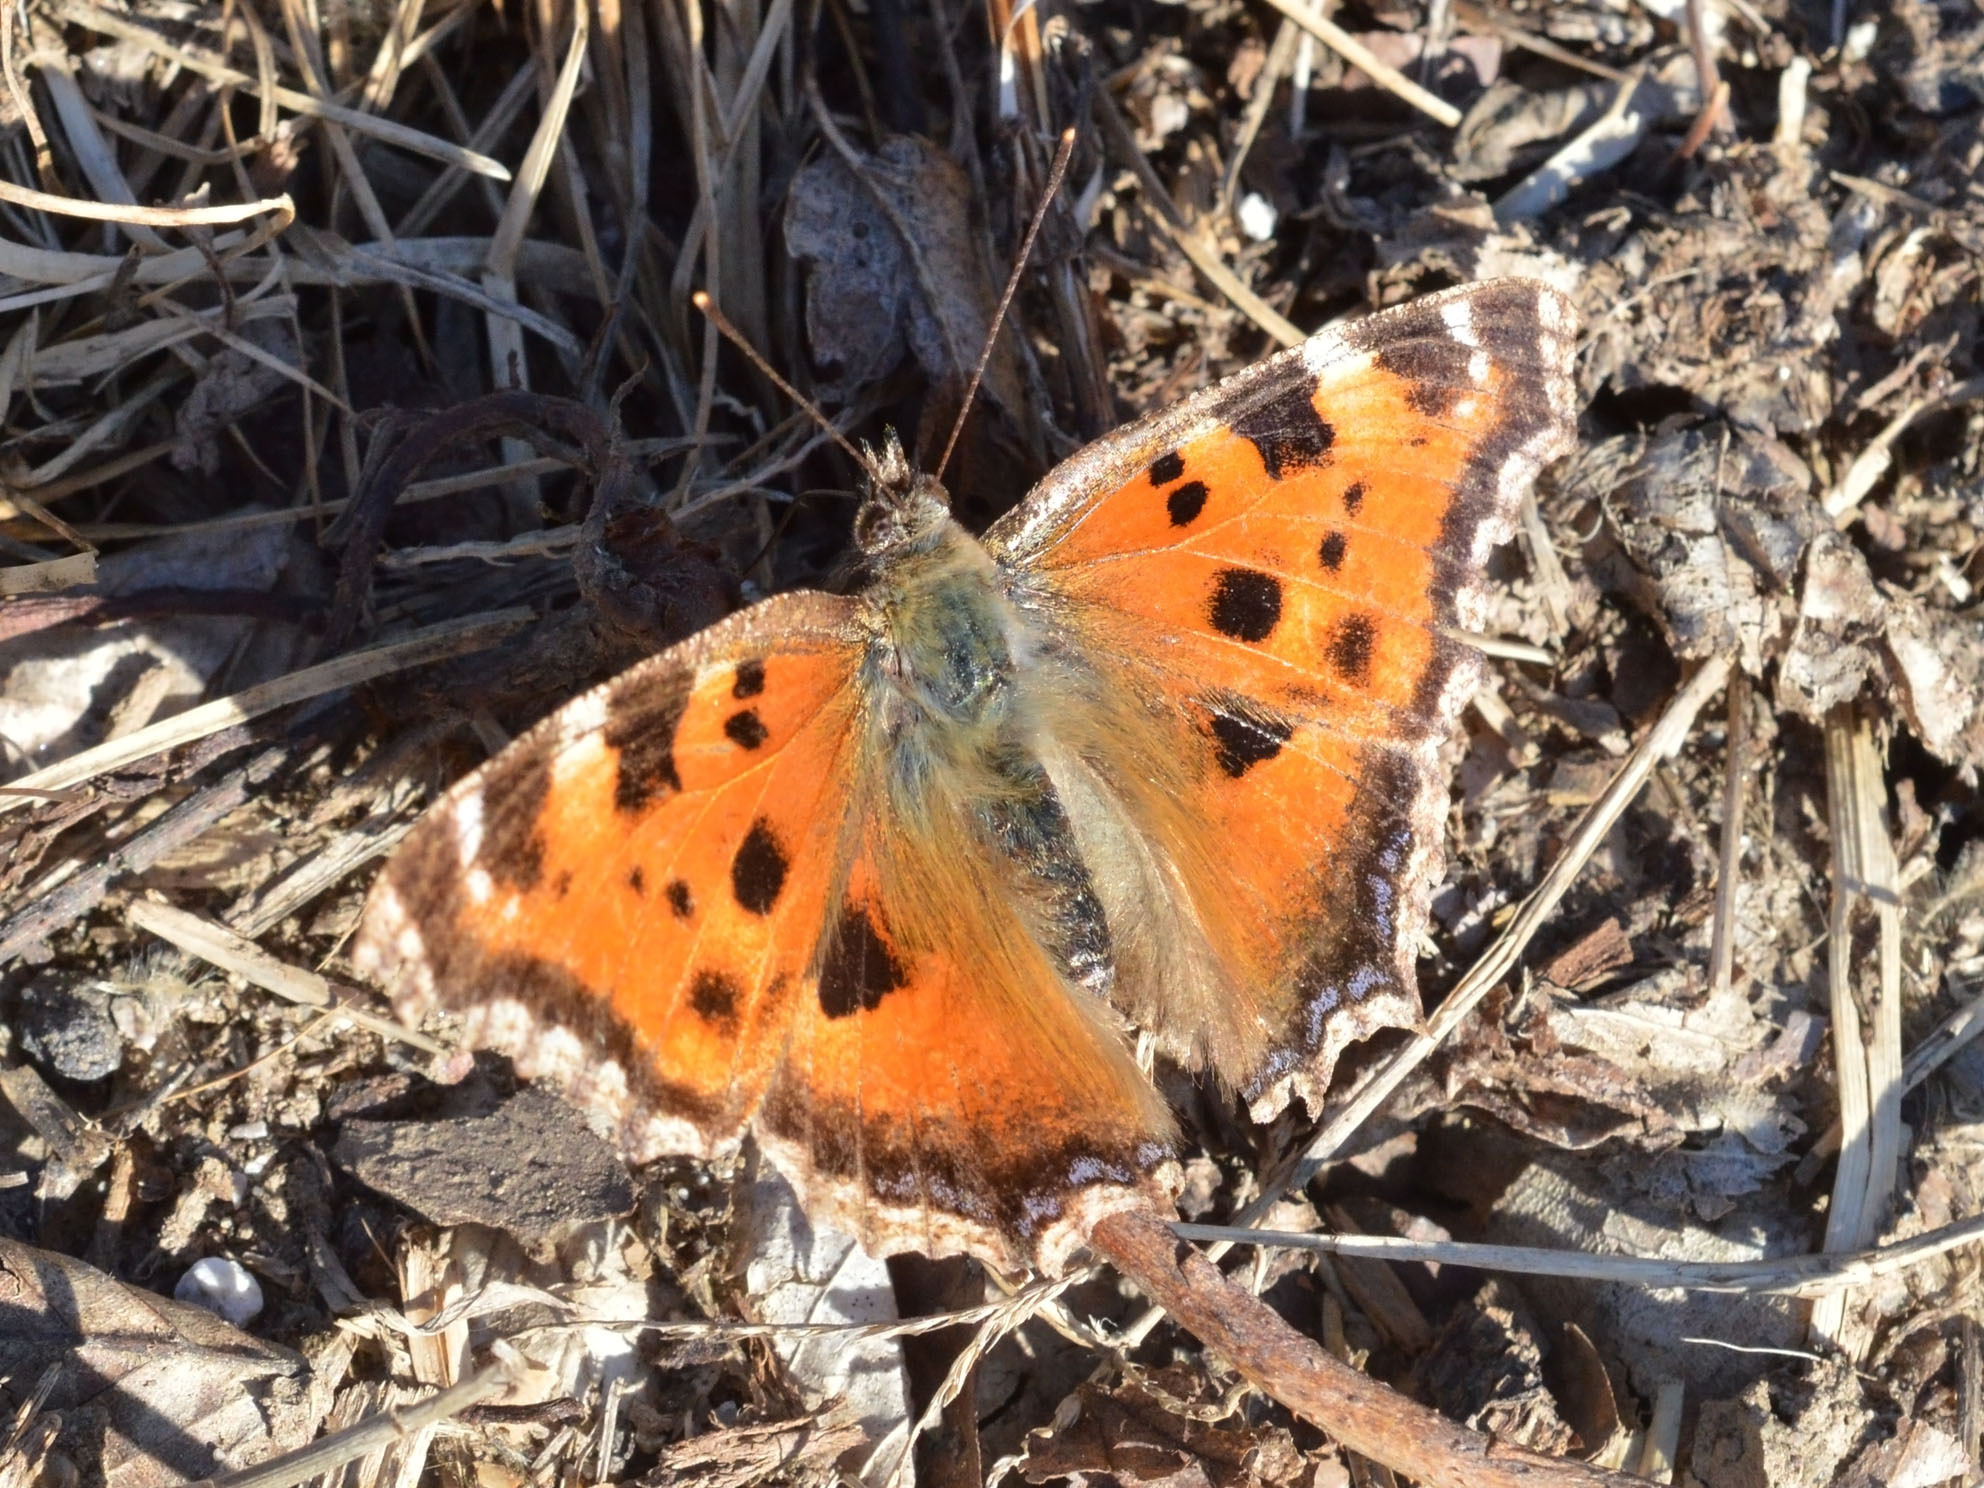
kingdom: Animalia
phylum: Arthropoda
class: Insecta
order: Lepidoptera
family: Nymphalidae
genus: Nymphalis
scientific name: Nymphalis xanthomelas
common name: Scarce tortoiseshell
